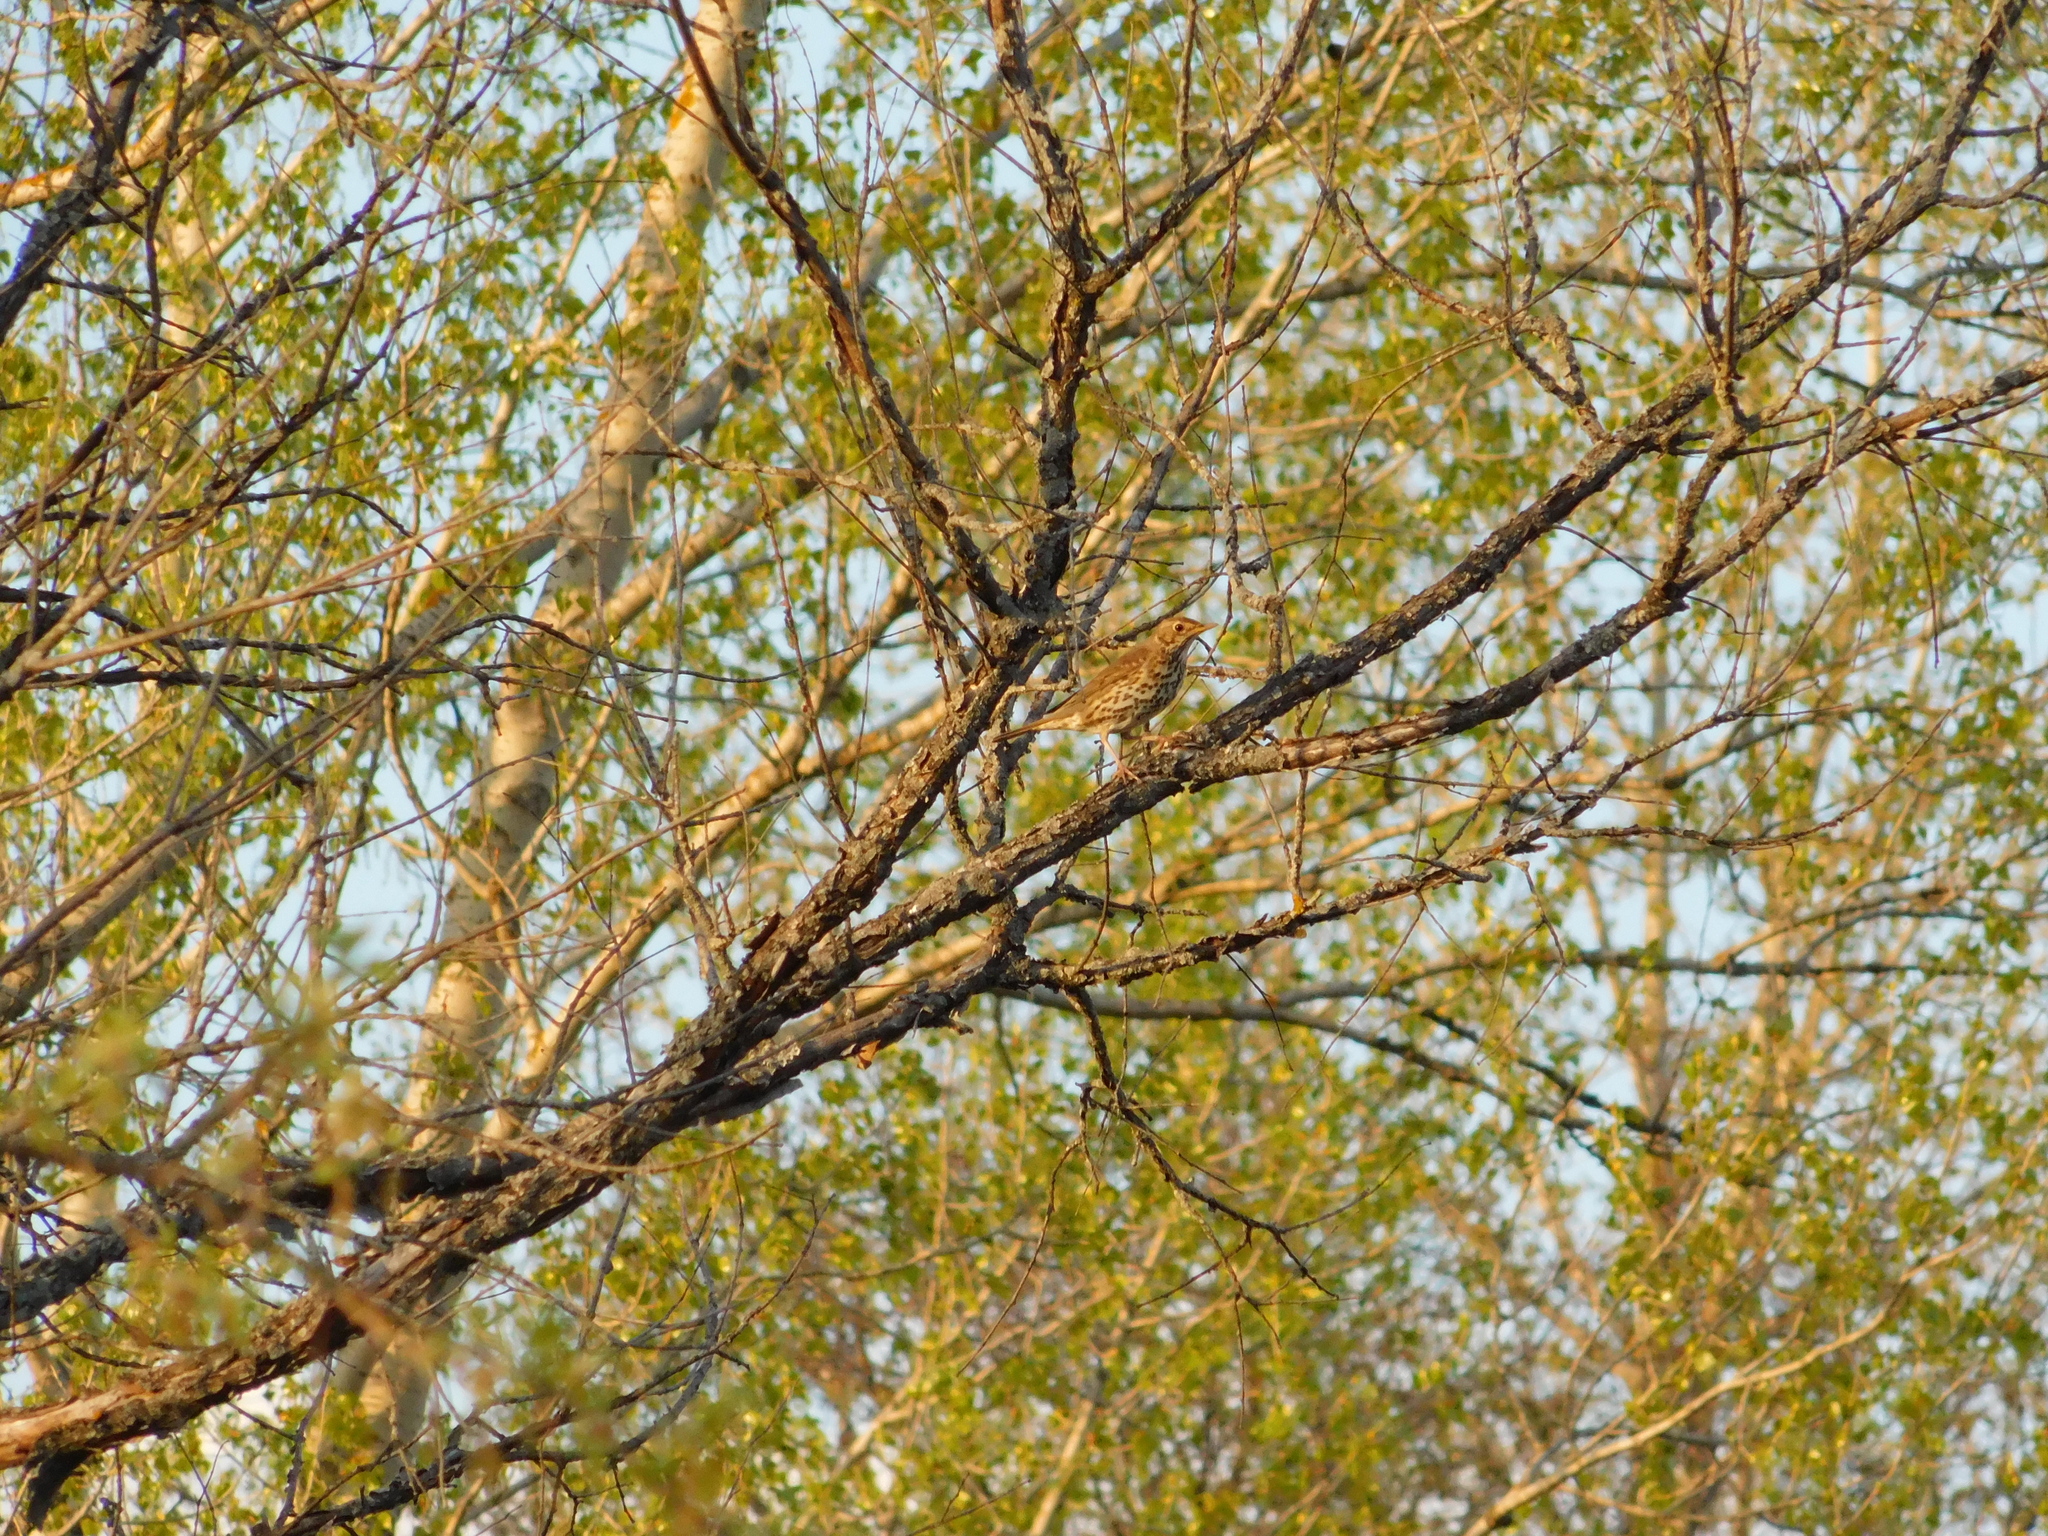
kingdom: Animalia
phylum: Chordata
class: Aves
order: Passeriformes
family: Turdidae
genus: Turdus
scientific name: Turdus philomelos
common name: Song thrush
